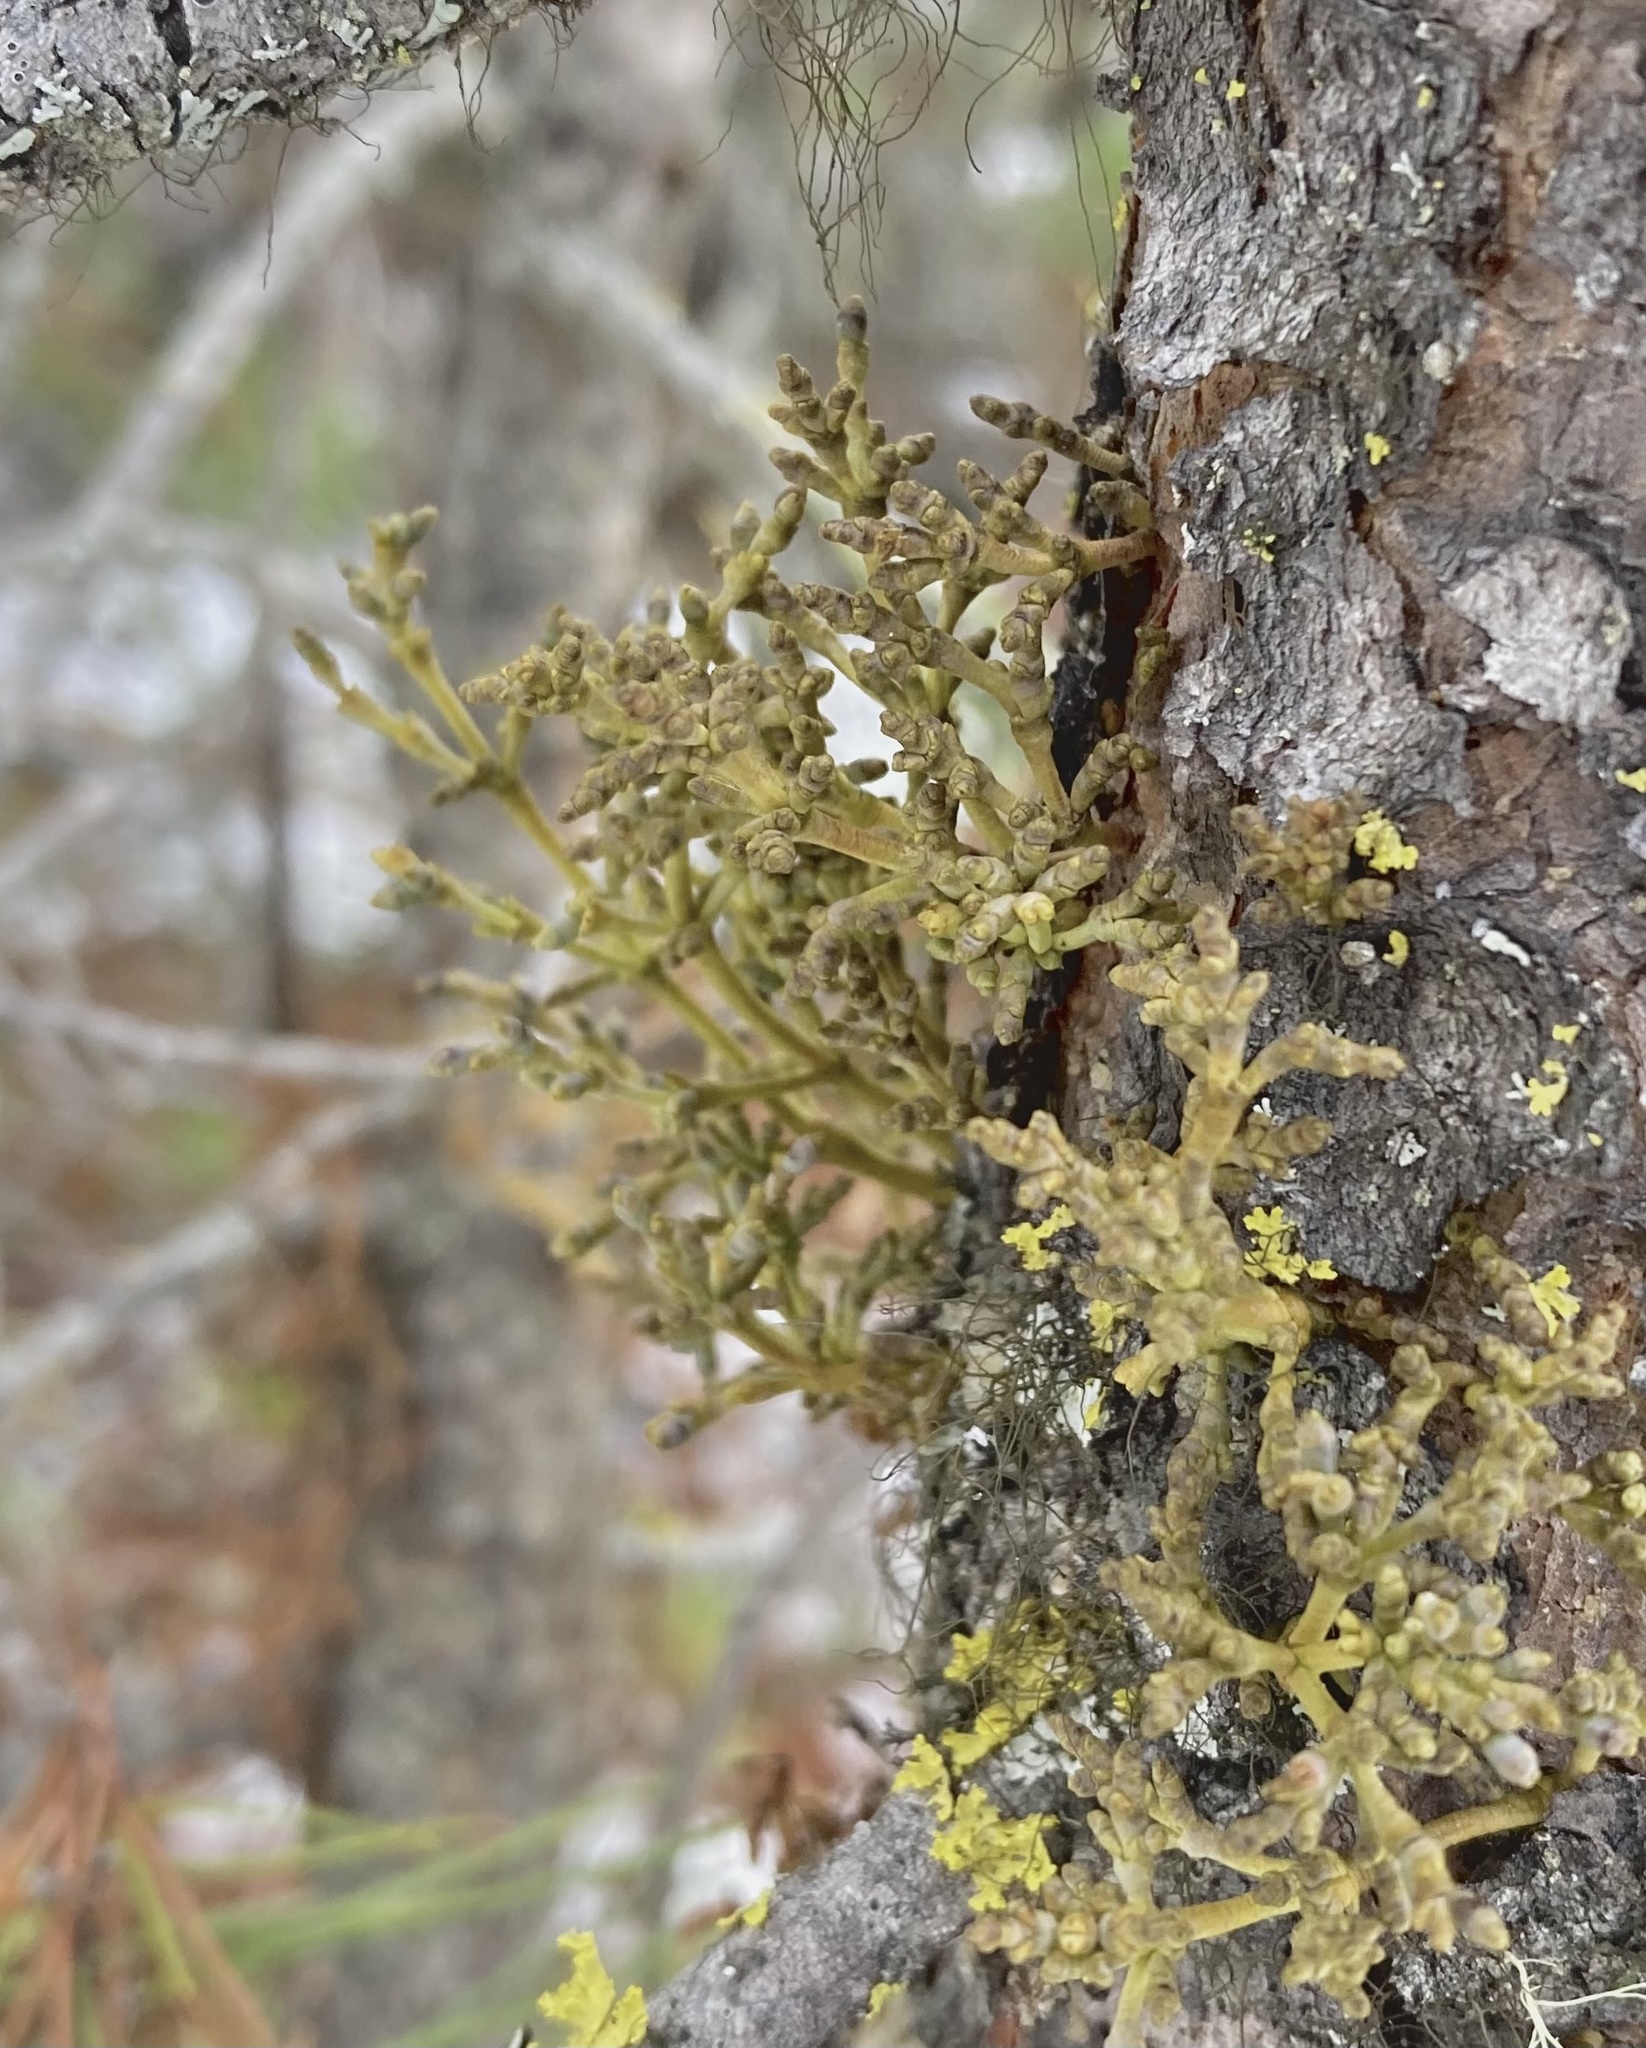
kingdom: Plantae
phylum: Tracheophyta
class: Magnoliopsida
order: Santalales
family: Viscaceae
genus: Arceuthobium
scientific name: Arceuthobium americanum
